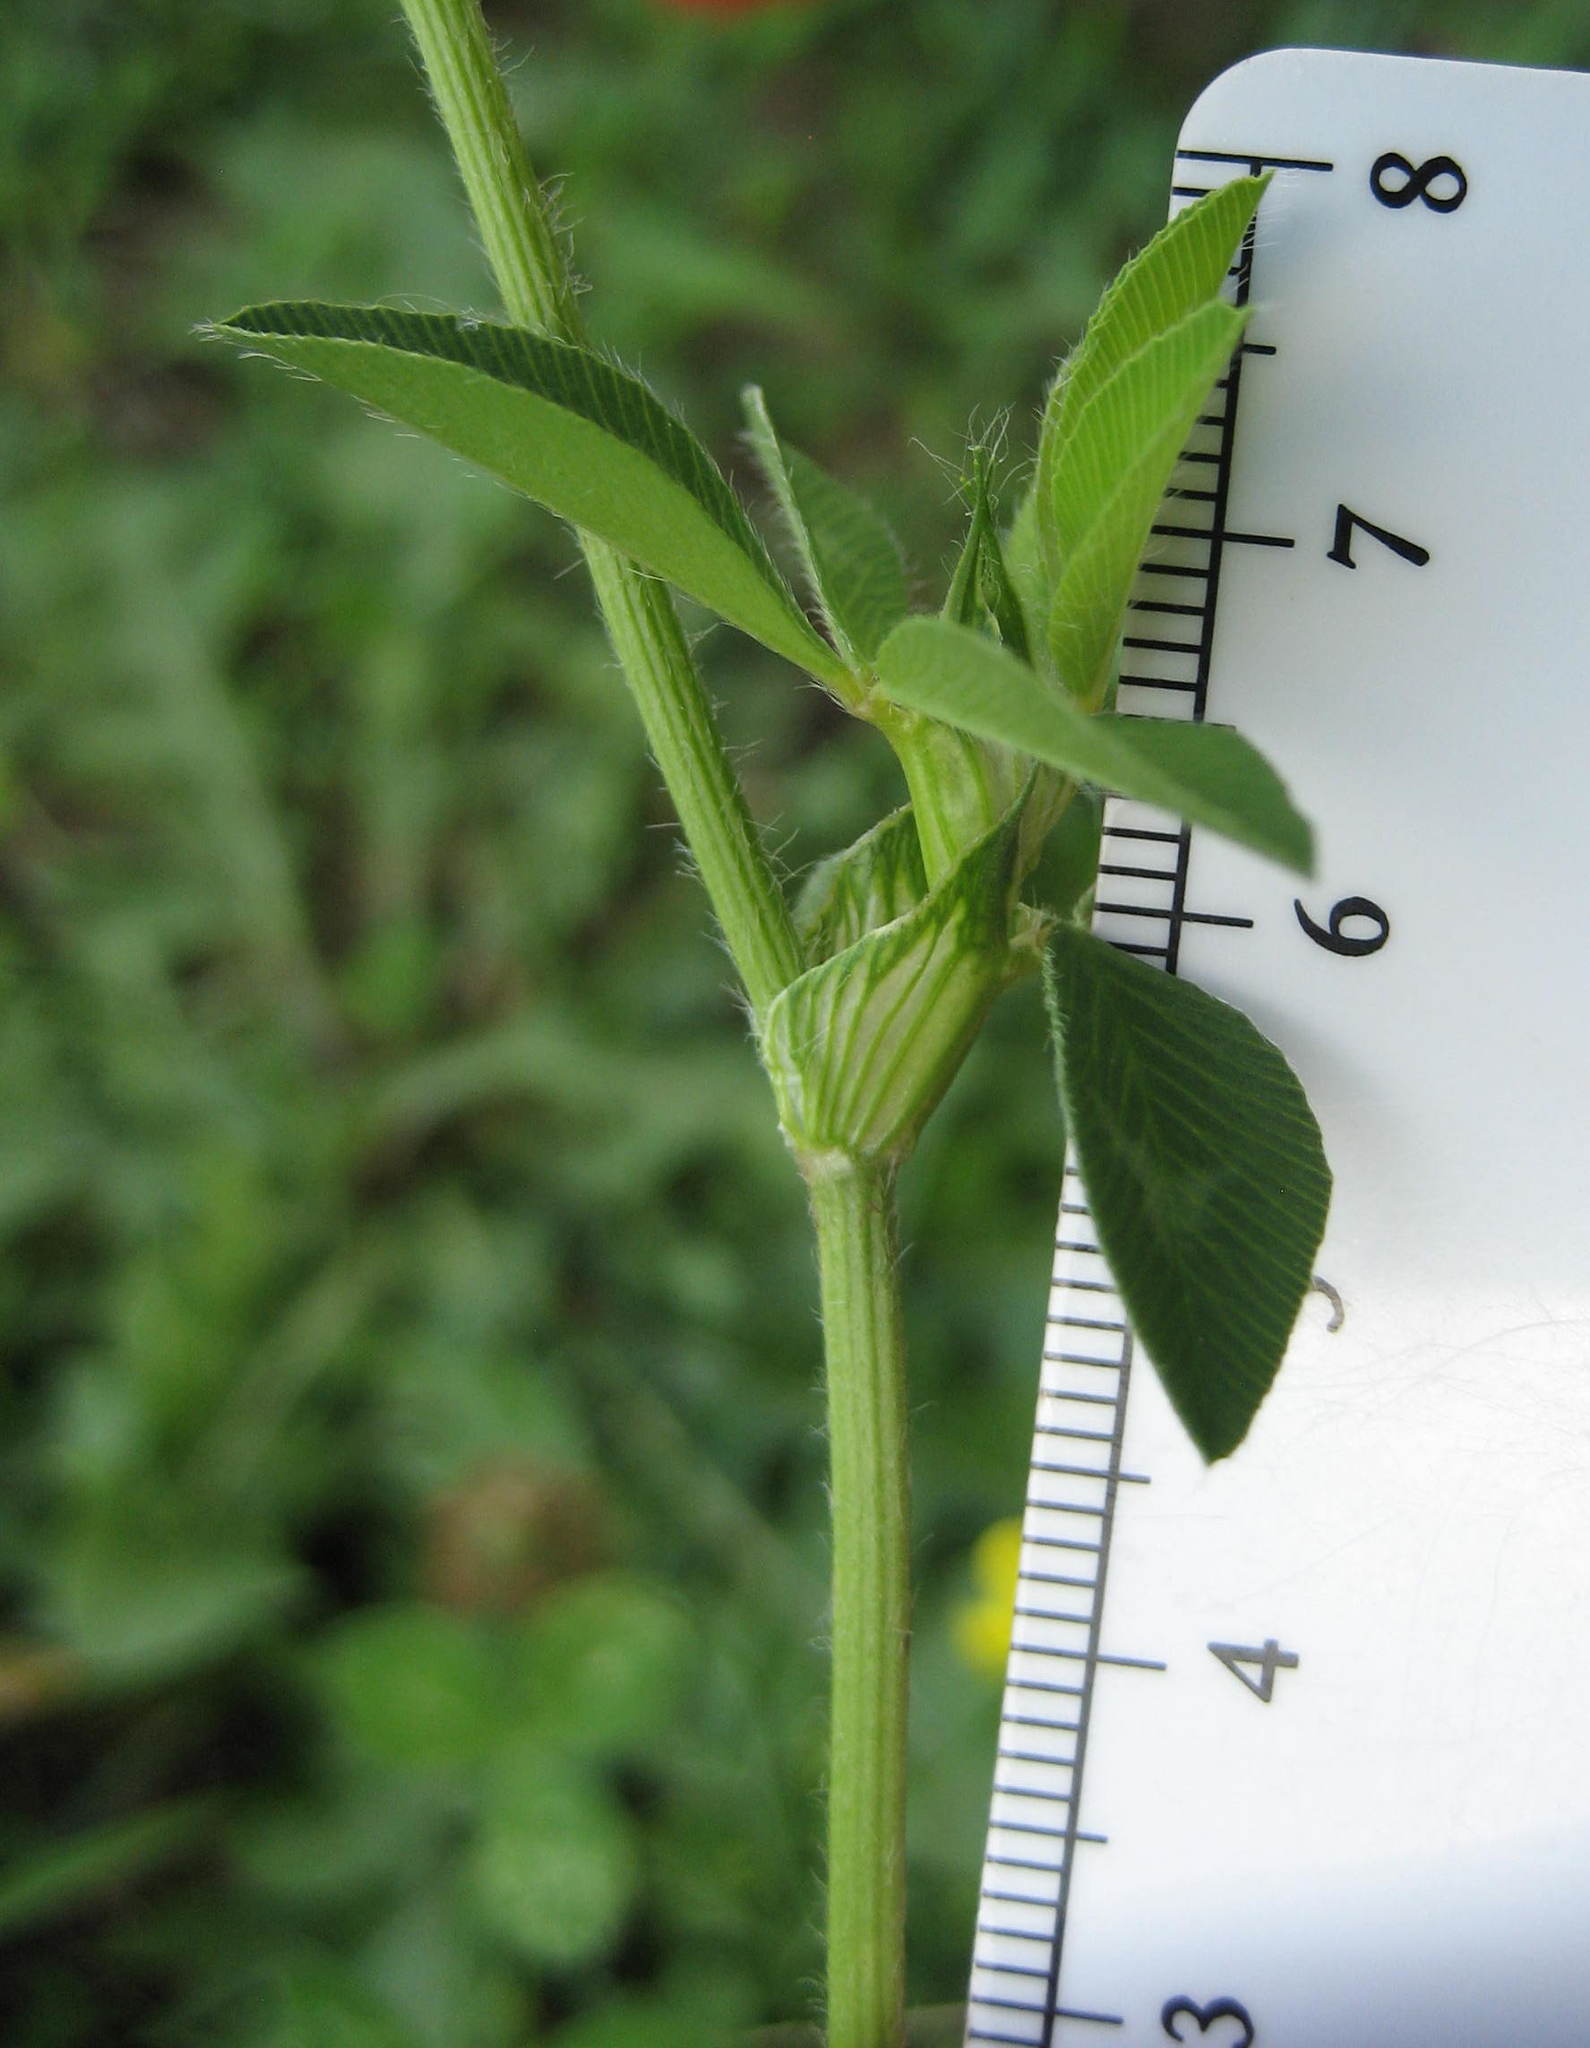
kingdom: Plantae
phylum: Tracheophyta
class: Magnoliopsida
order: Fabales
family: Fabaceae
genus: Trifolium
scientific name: Trifolium pratense
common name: Red clover
